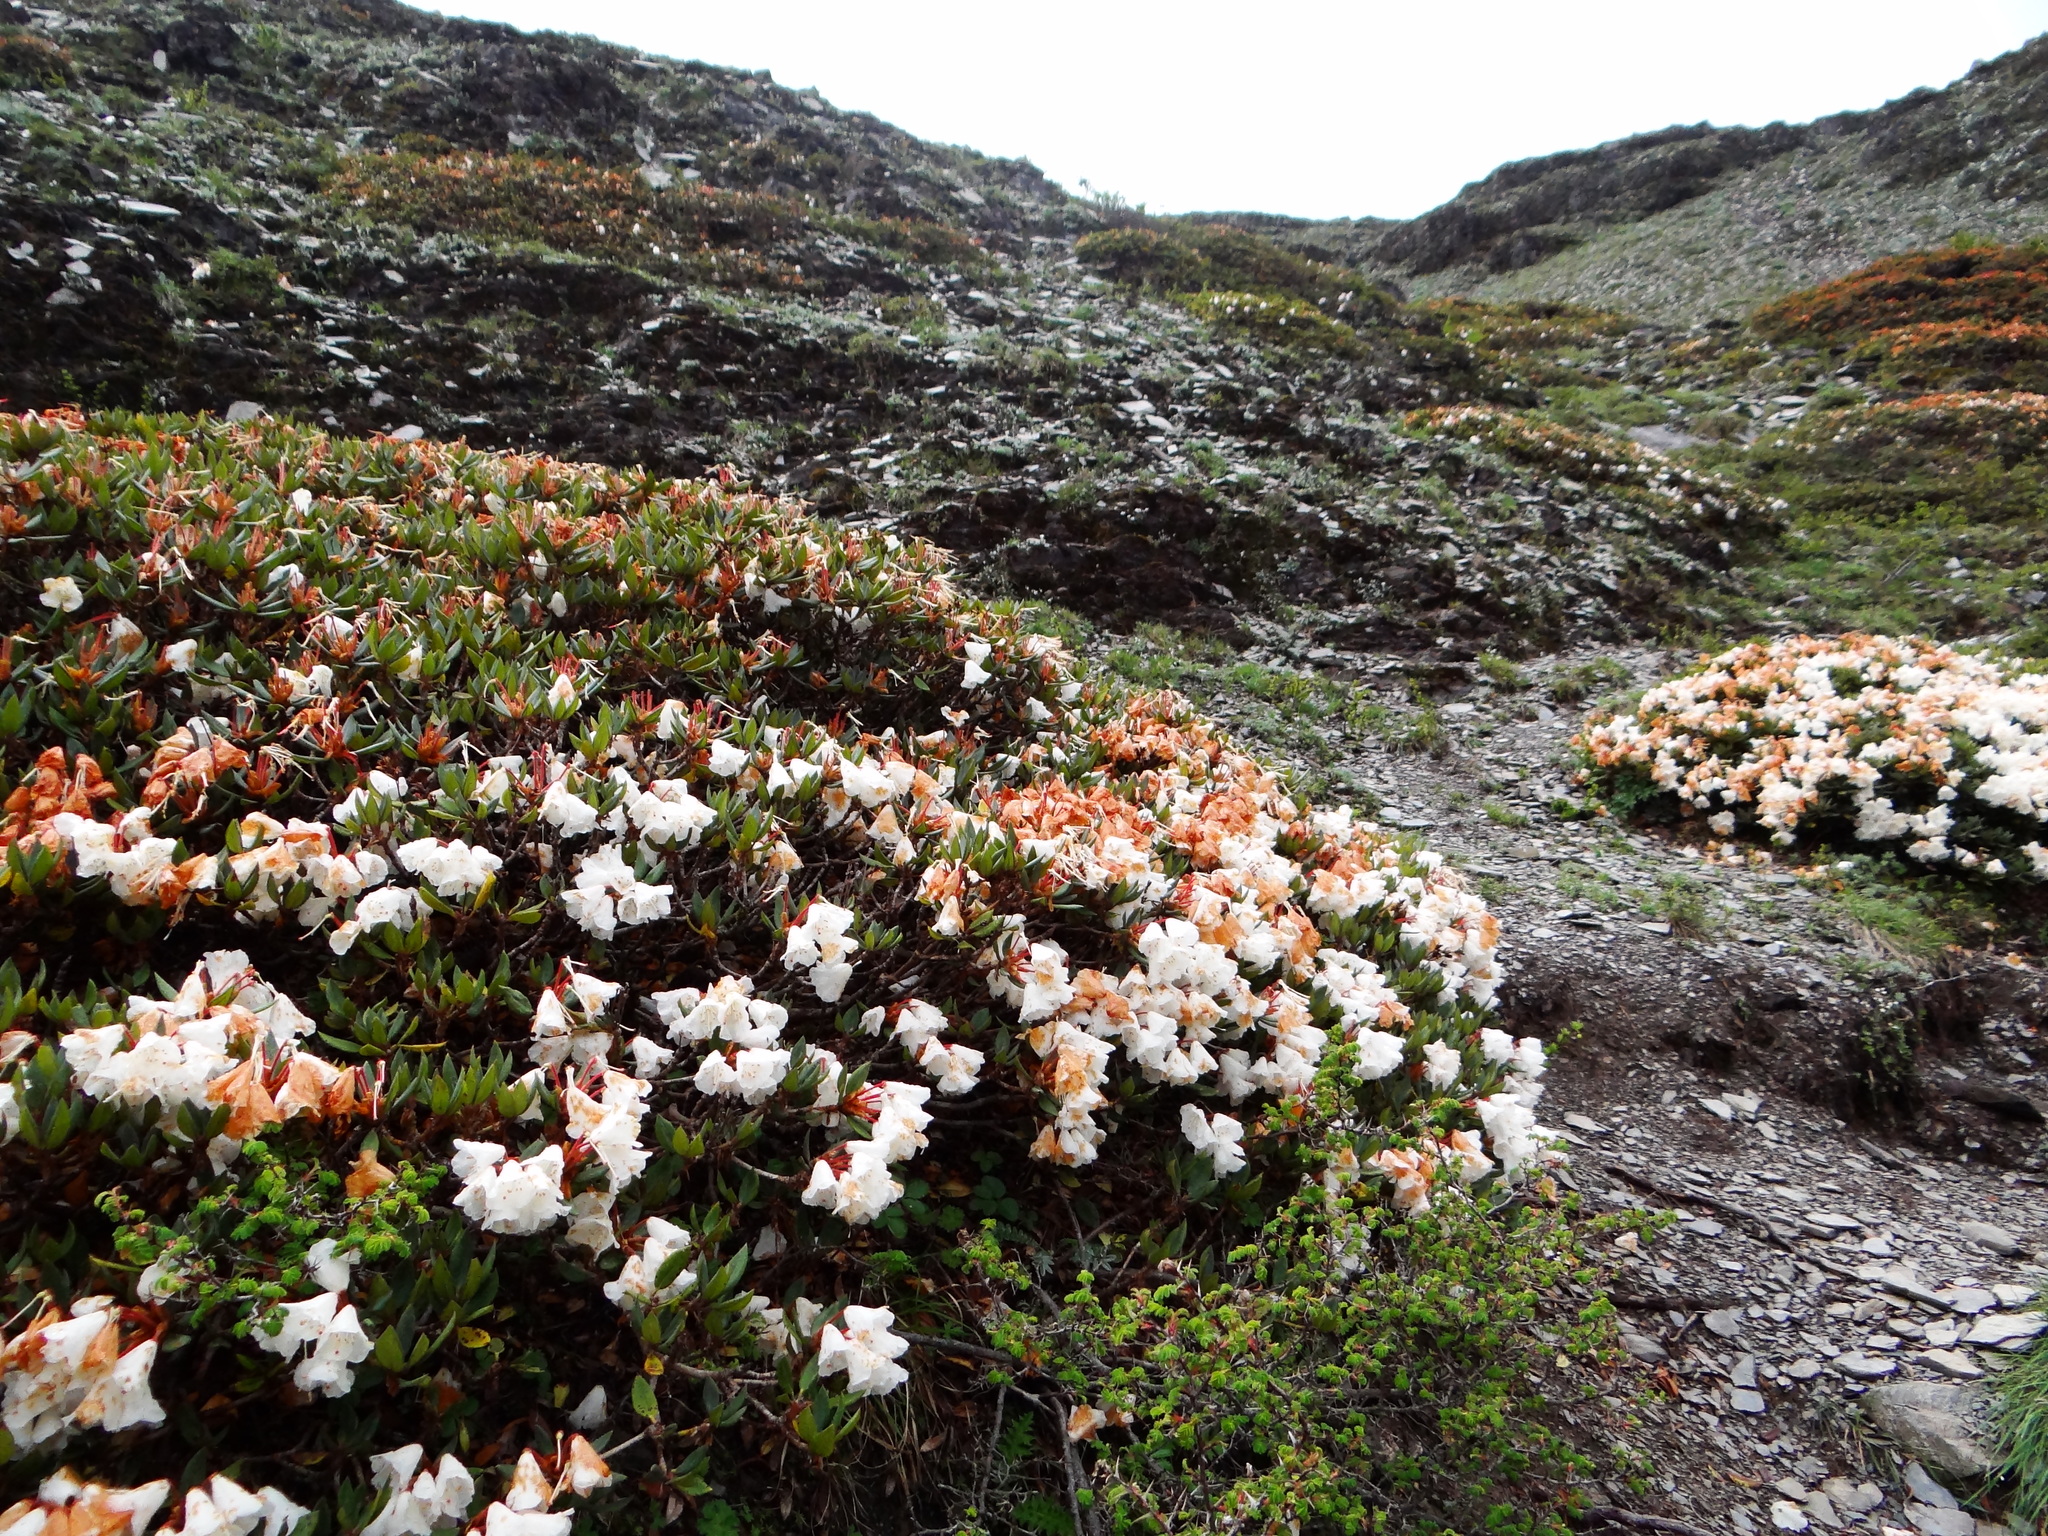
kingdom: Plantae
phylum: Tracheophyta
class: Magnoliopsida
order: Ericales
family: Ericaceae
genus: Rhododendron
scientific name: Rhododendron pseudochrysanthum
